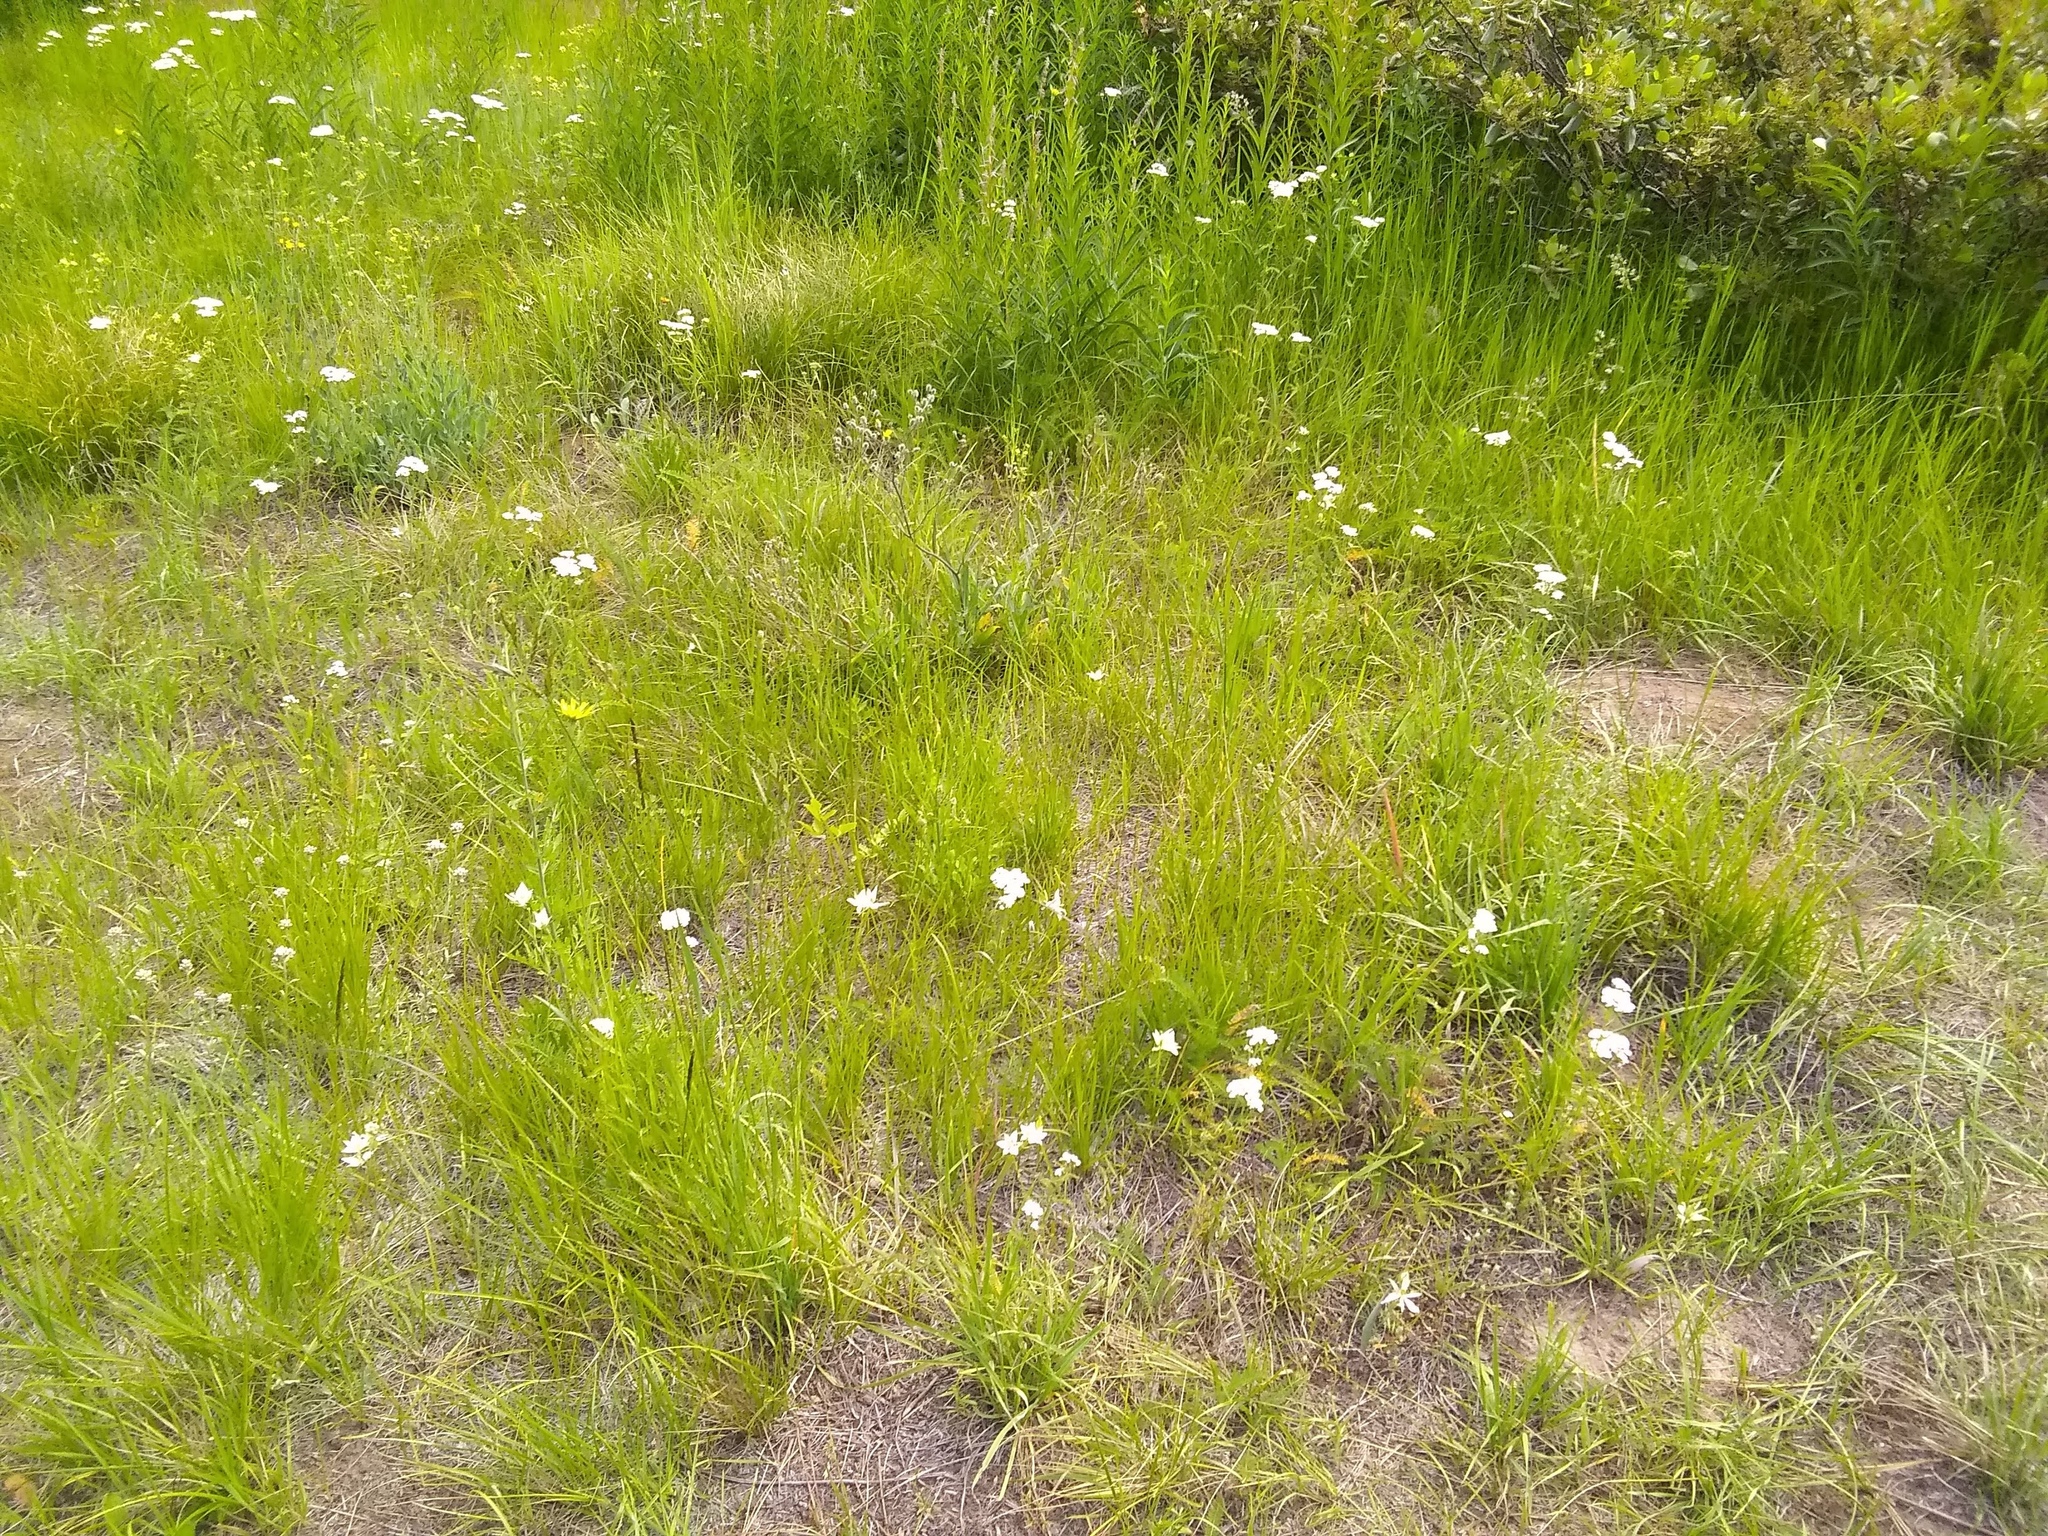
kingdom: Plantae
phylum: Tracheophyta
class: Liliopsida
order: Liliales
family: Liliaceae
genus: Calochortus
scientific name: Calochortus lyallii
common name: Lyall's mariposa lily
